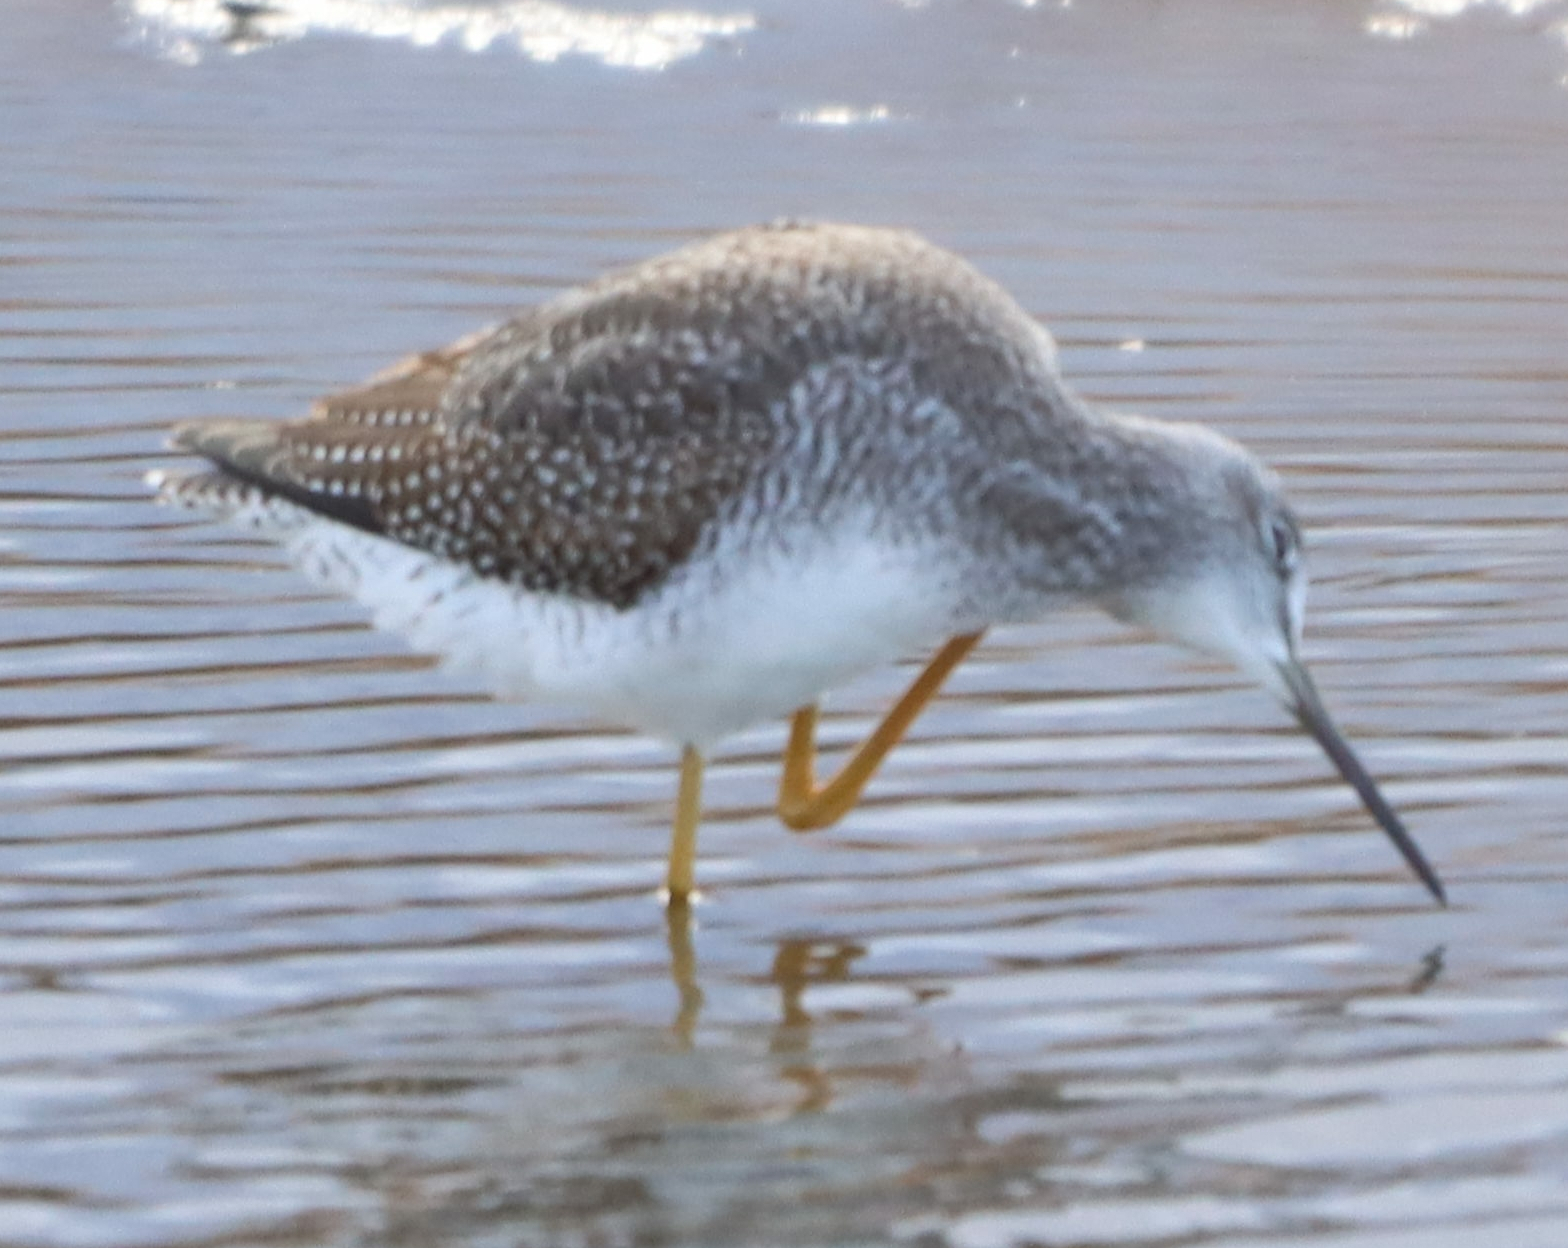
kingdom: Animalia
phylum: Chordata
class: Aves
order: Charadriiformes
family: Scolopacidae
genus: Tringa
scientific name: Tringa melanoleuca
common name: Greater yellowlegs
